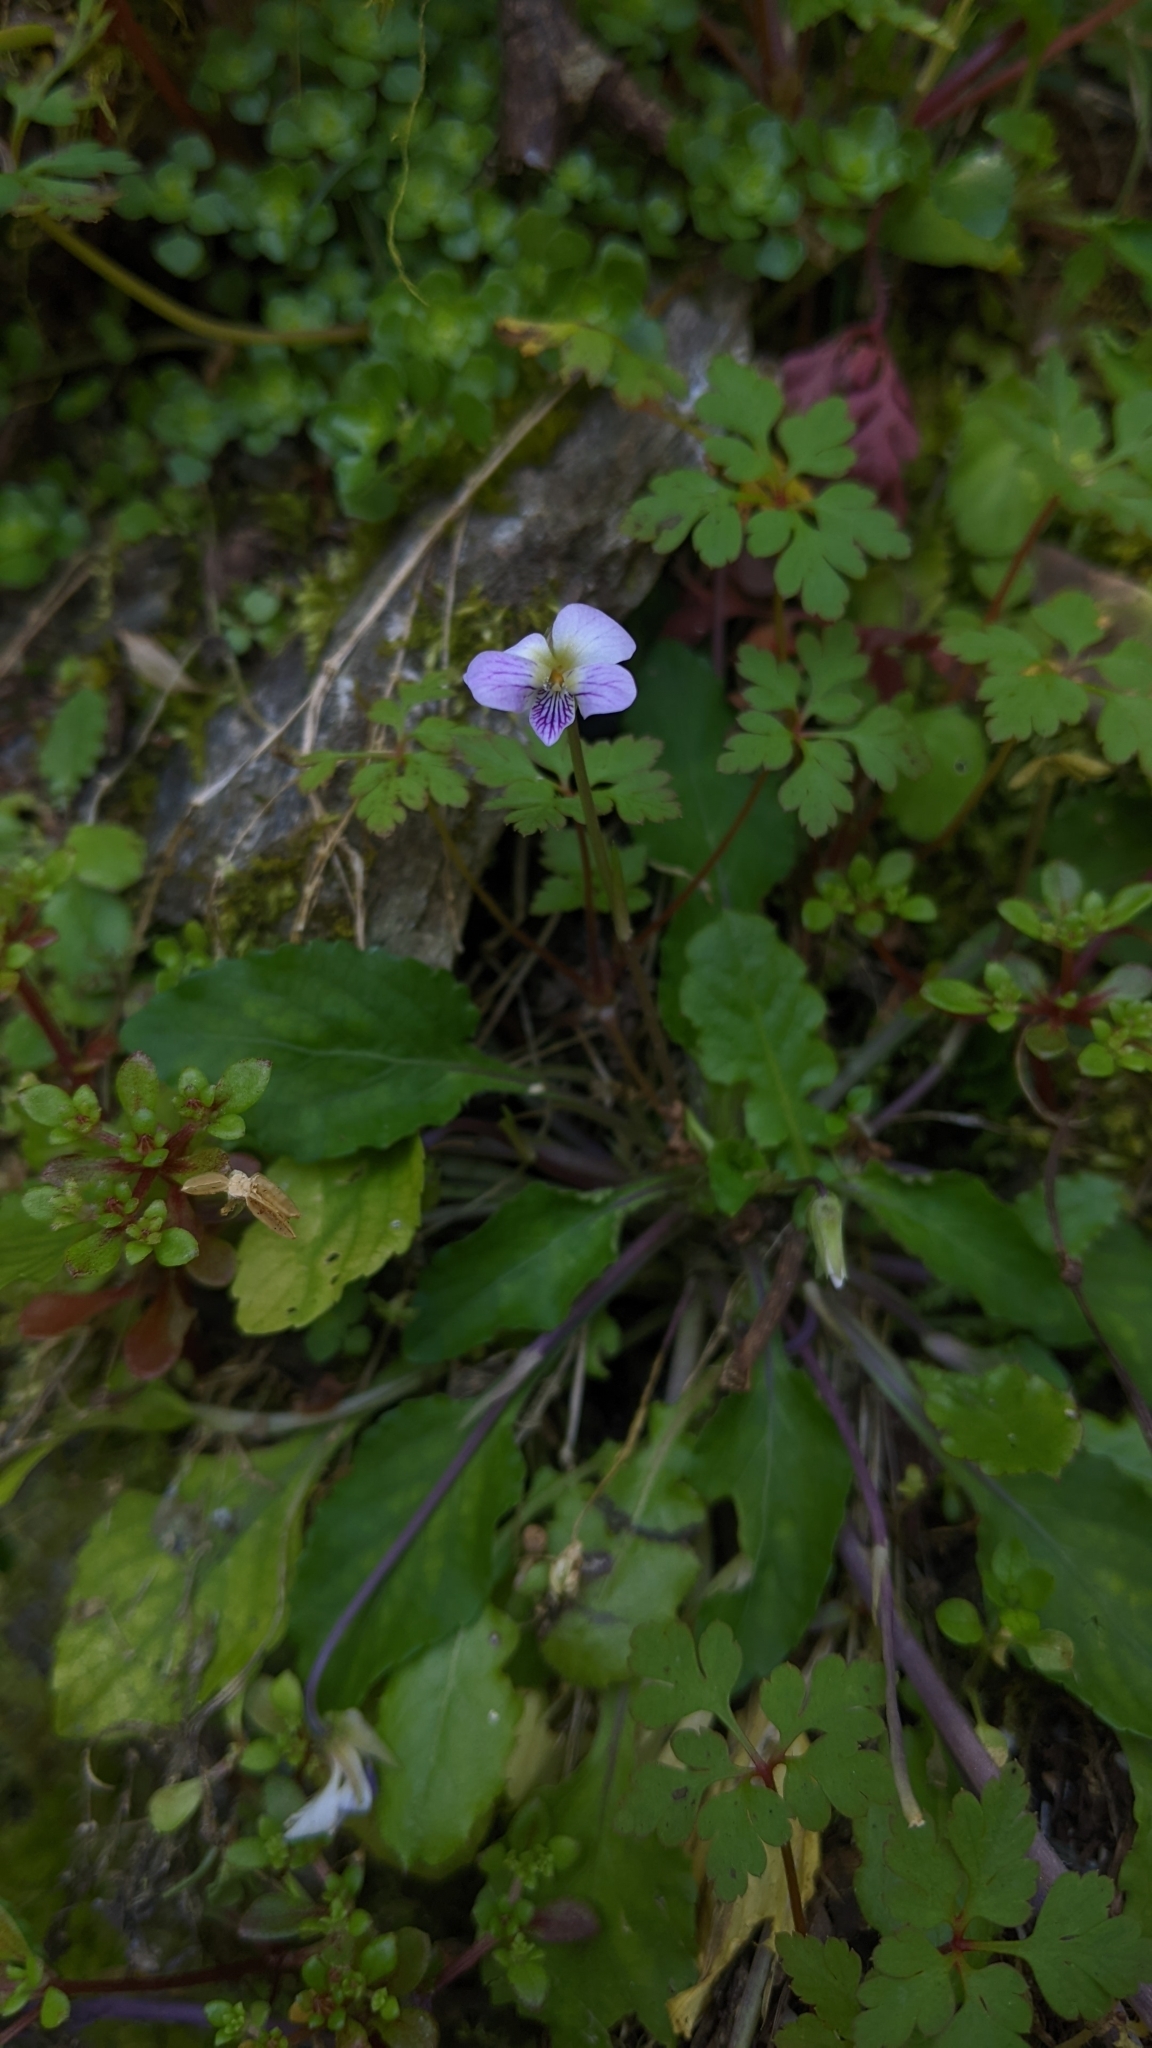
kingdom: Plantae
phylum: Tracheophyta
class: Magnoliopsida
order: Malpighiales
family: Violaceae
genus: Viola
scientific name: Viola diffusa
